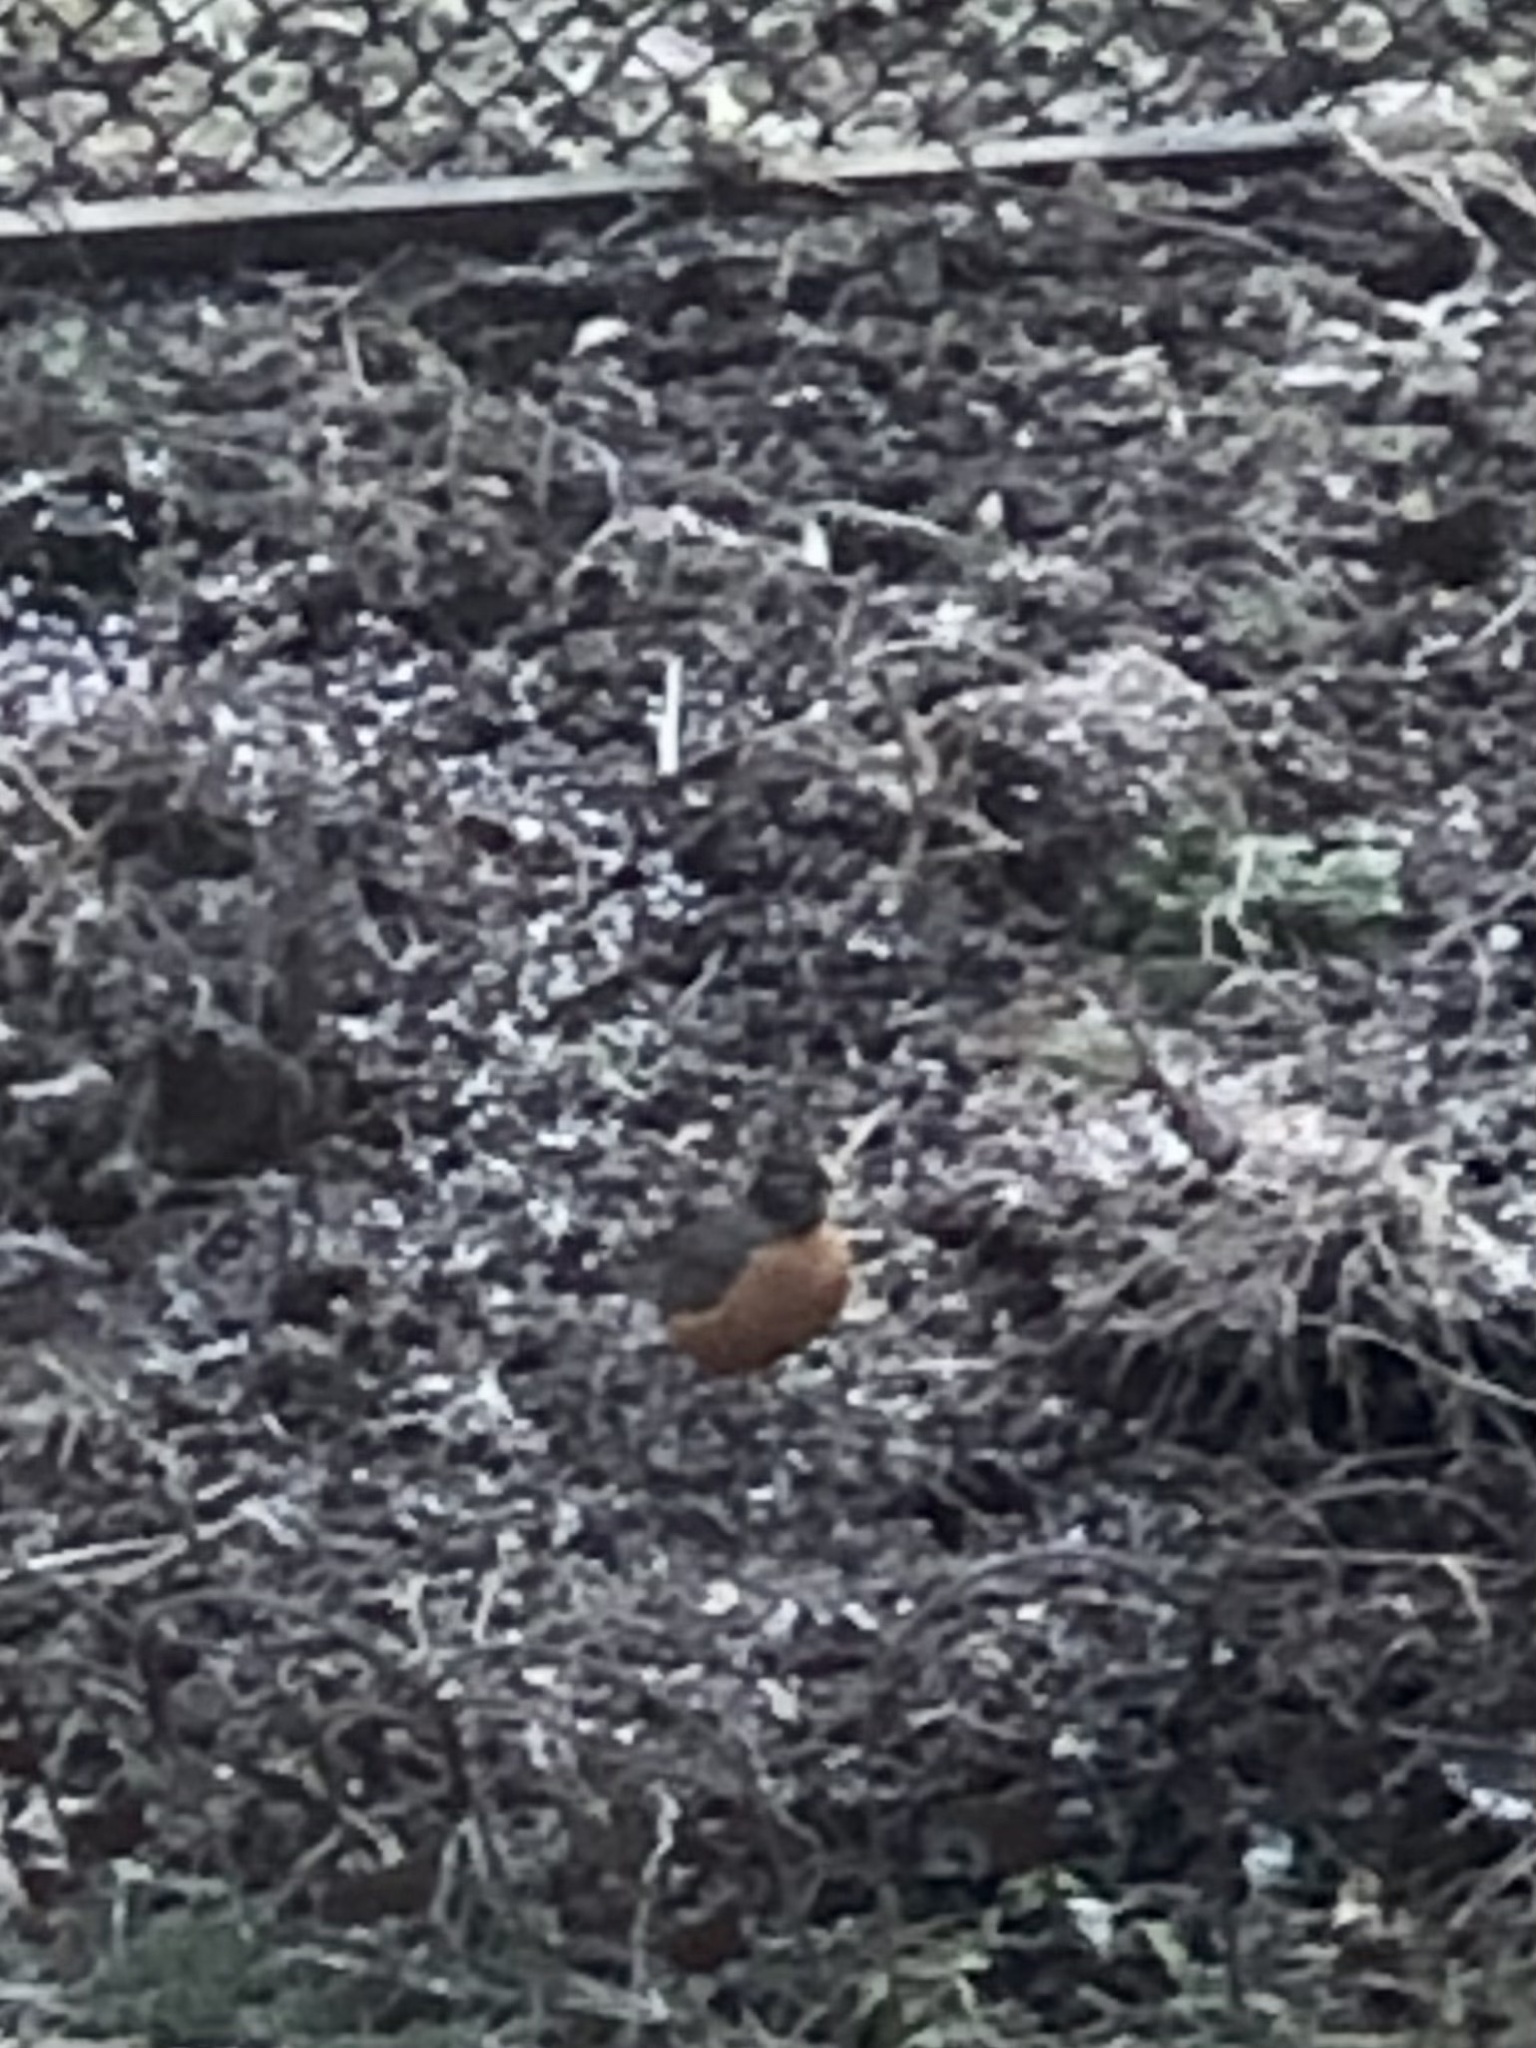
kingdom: Animalia
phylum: Chordata
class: Aves
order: Passeriformes
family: Turdidae
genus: Turdus
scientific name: Turdus migratorius
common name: American robin
